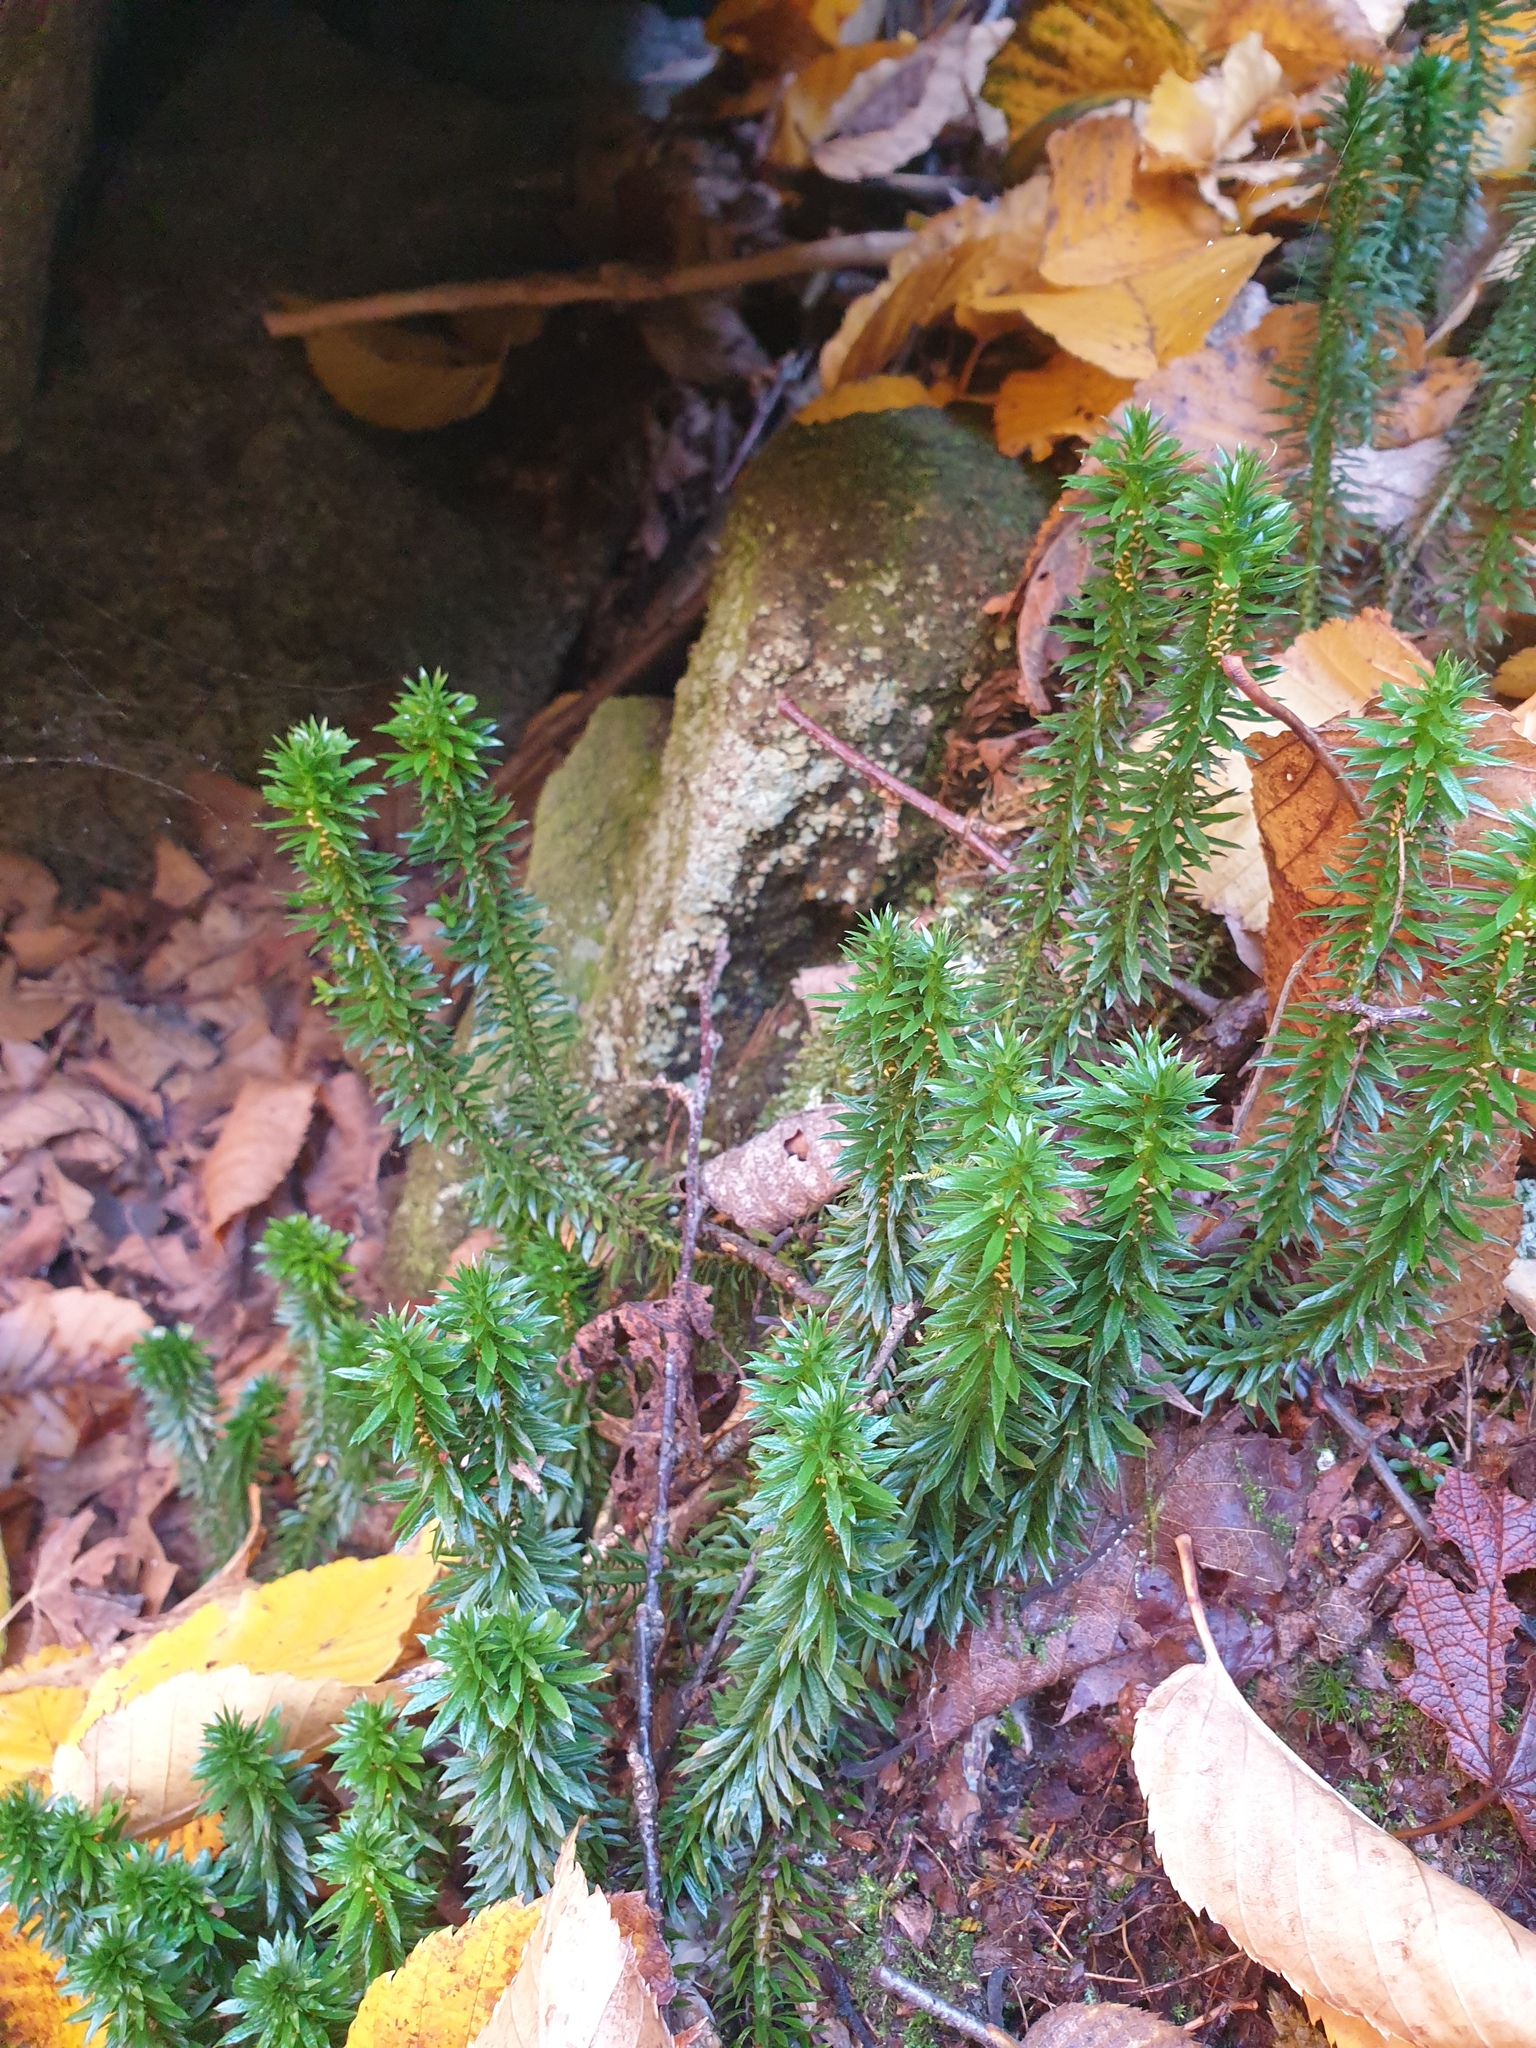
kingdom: Plantae
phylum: Tracheophyta
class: Lycopodiopsida
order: Lycopodiales
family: Lycopodiaceae
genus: Huperzia
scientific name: Huperzia lucidula
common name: Shining clubmoss
